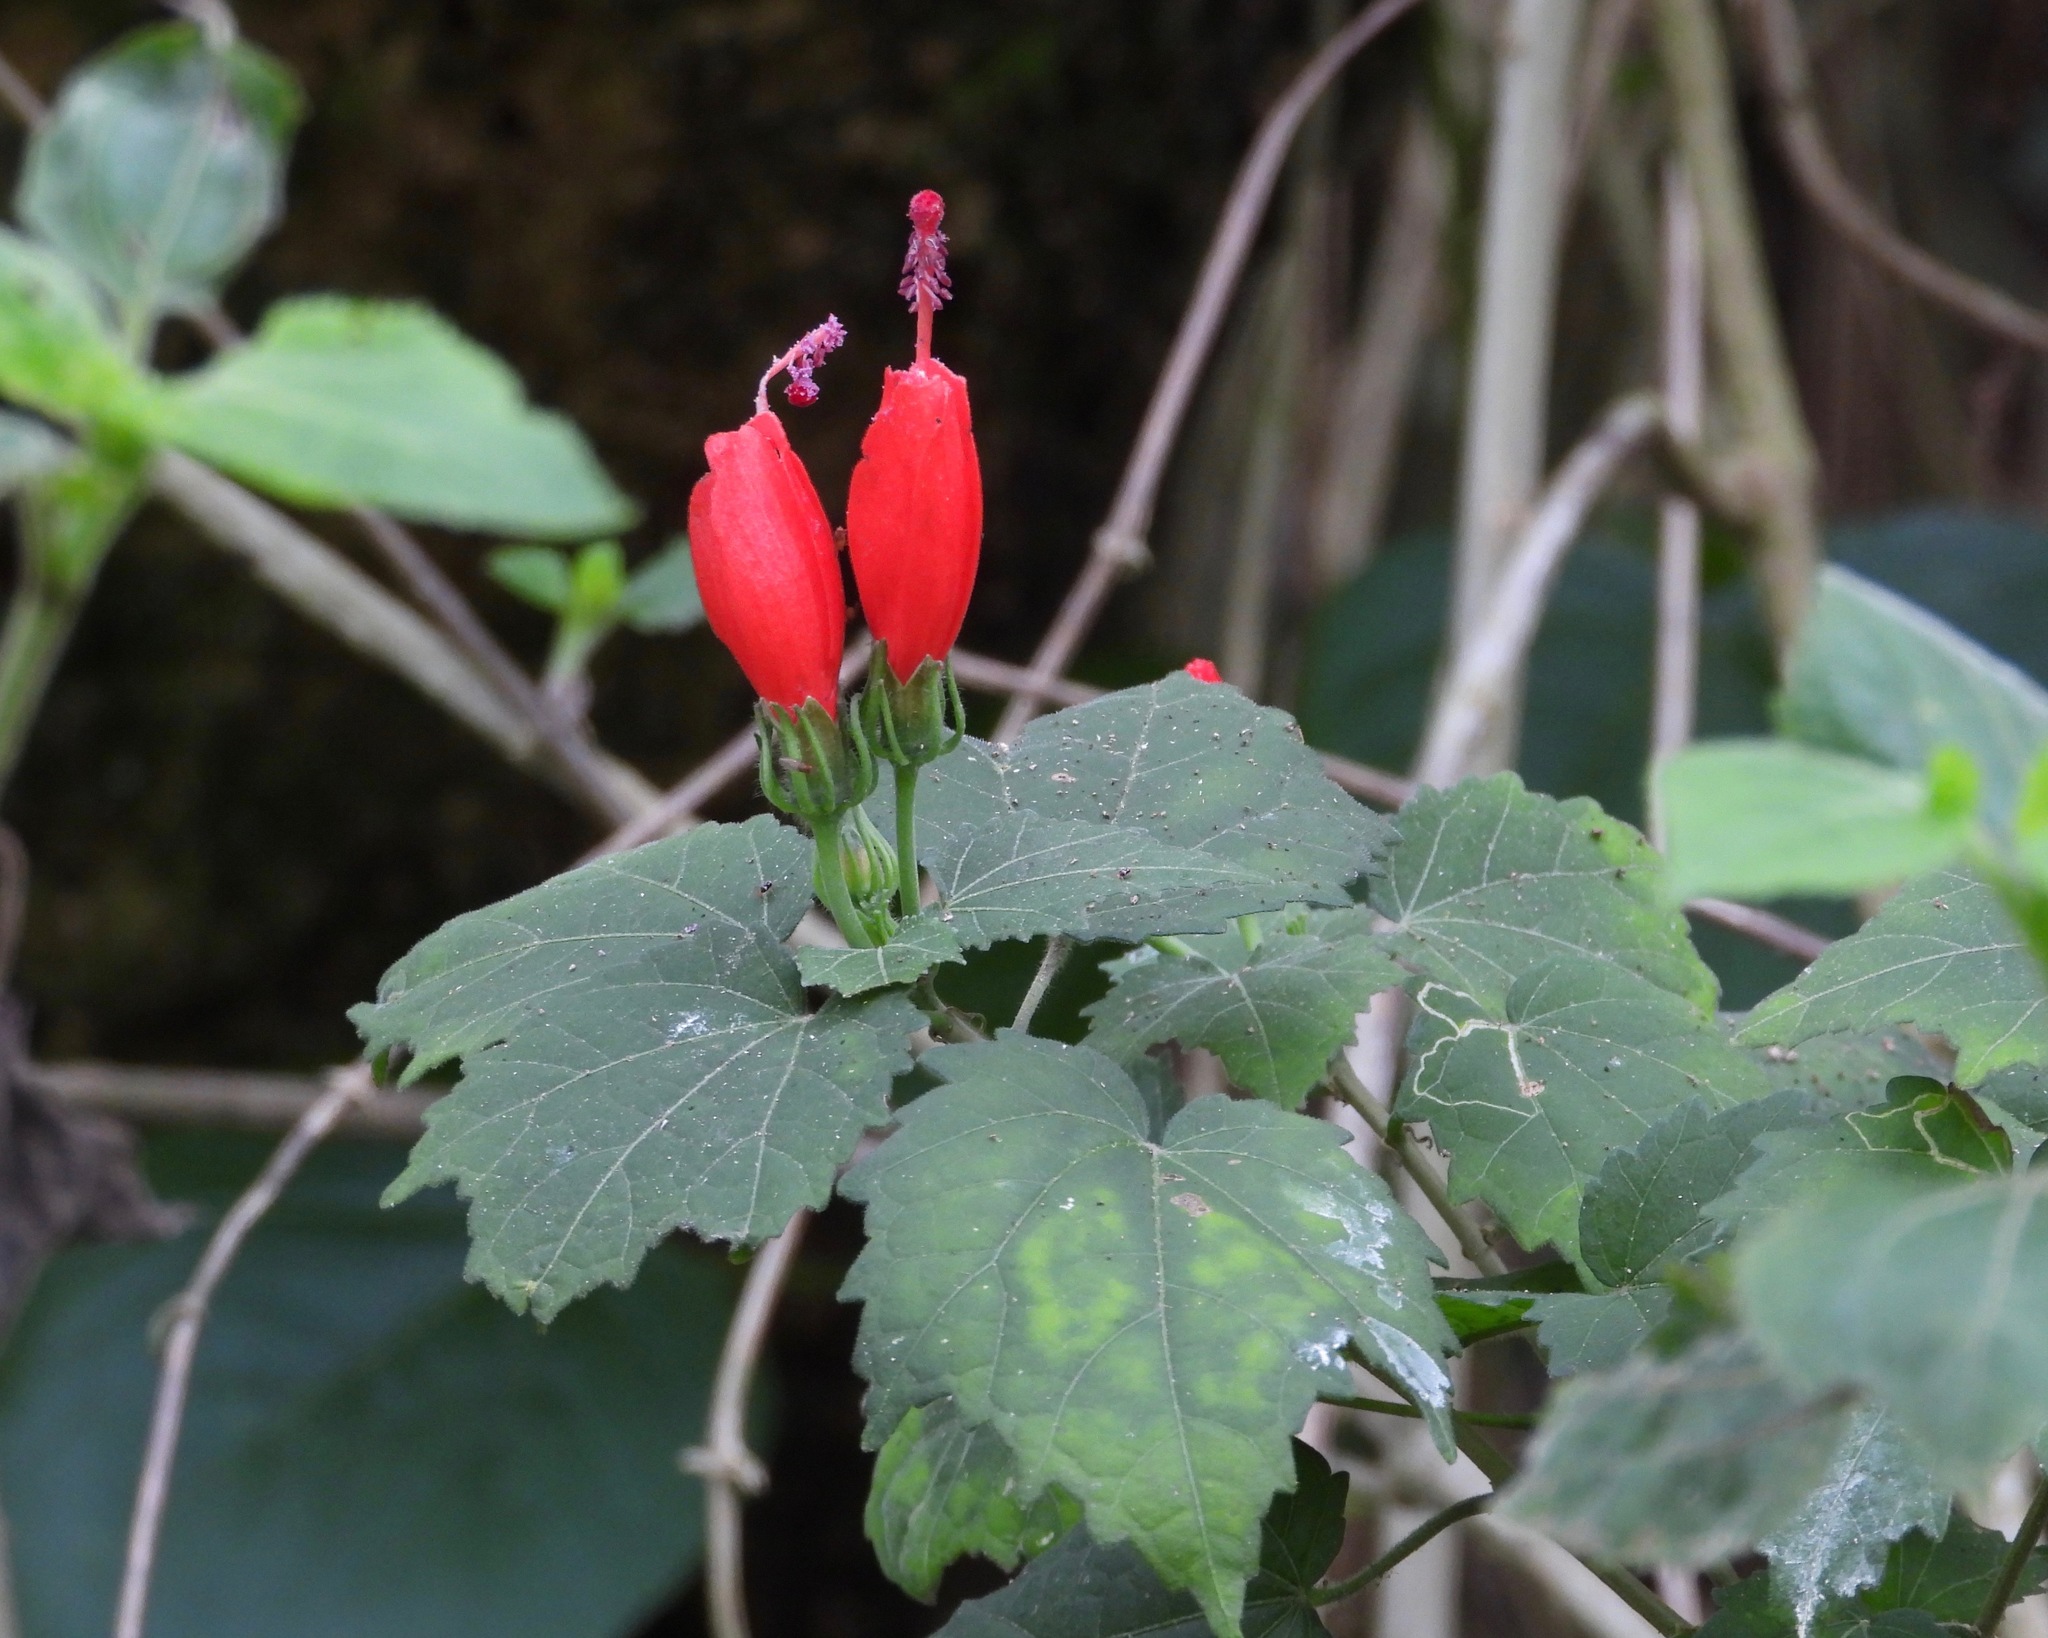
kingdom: Plantae
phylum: Tracheophyta
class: Magnoliopsida
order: Malvales
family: Malvaceae
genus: Malvaviscus
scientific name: Malvaviscus arboreus
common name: Wax mallow
